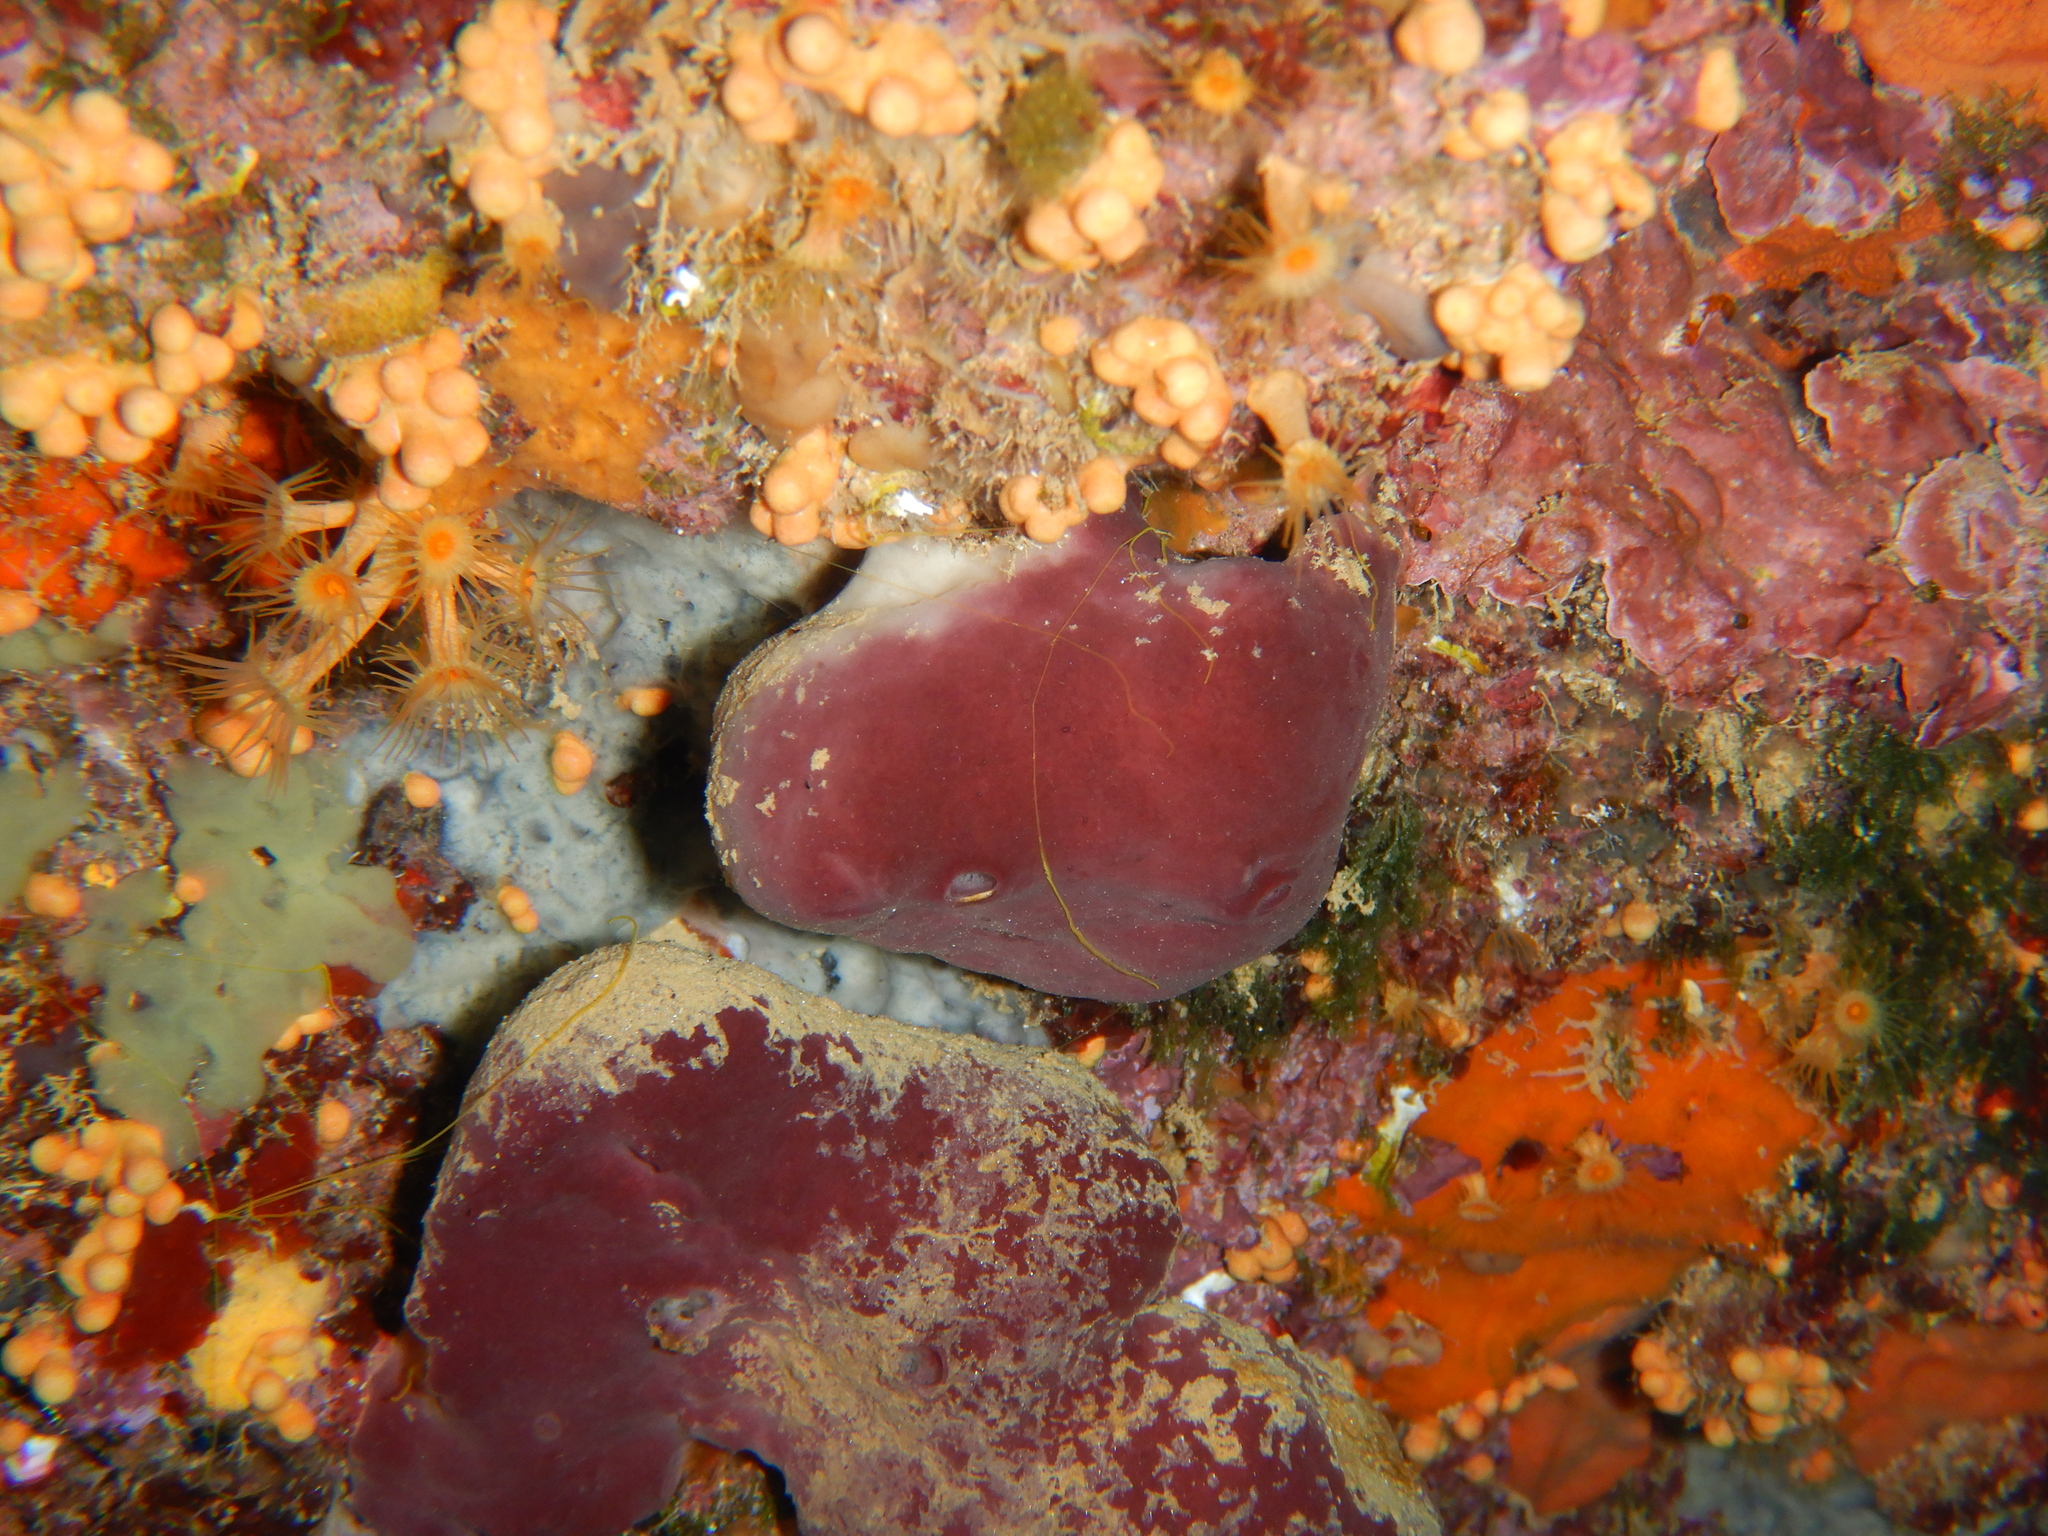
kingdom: Animalia
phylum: Porifera
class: Demospongiae
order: Haplosclerida
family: Petrosiidae
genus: Petrosia
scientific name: Petrosia ficiformis
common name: Stony sponge
